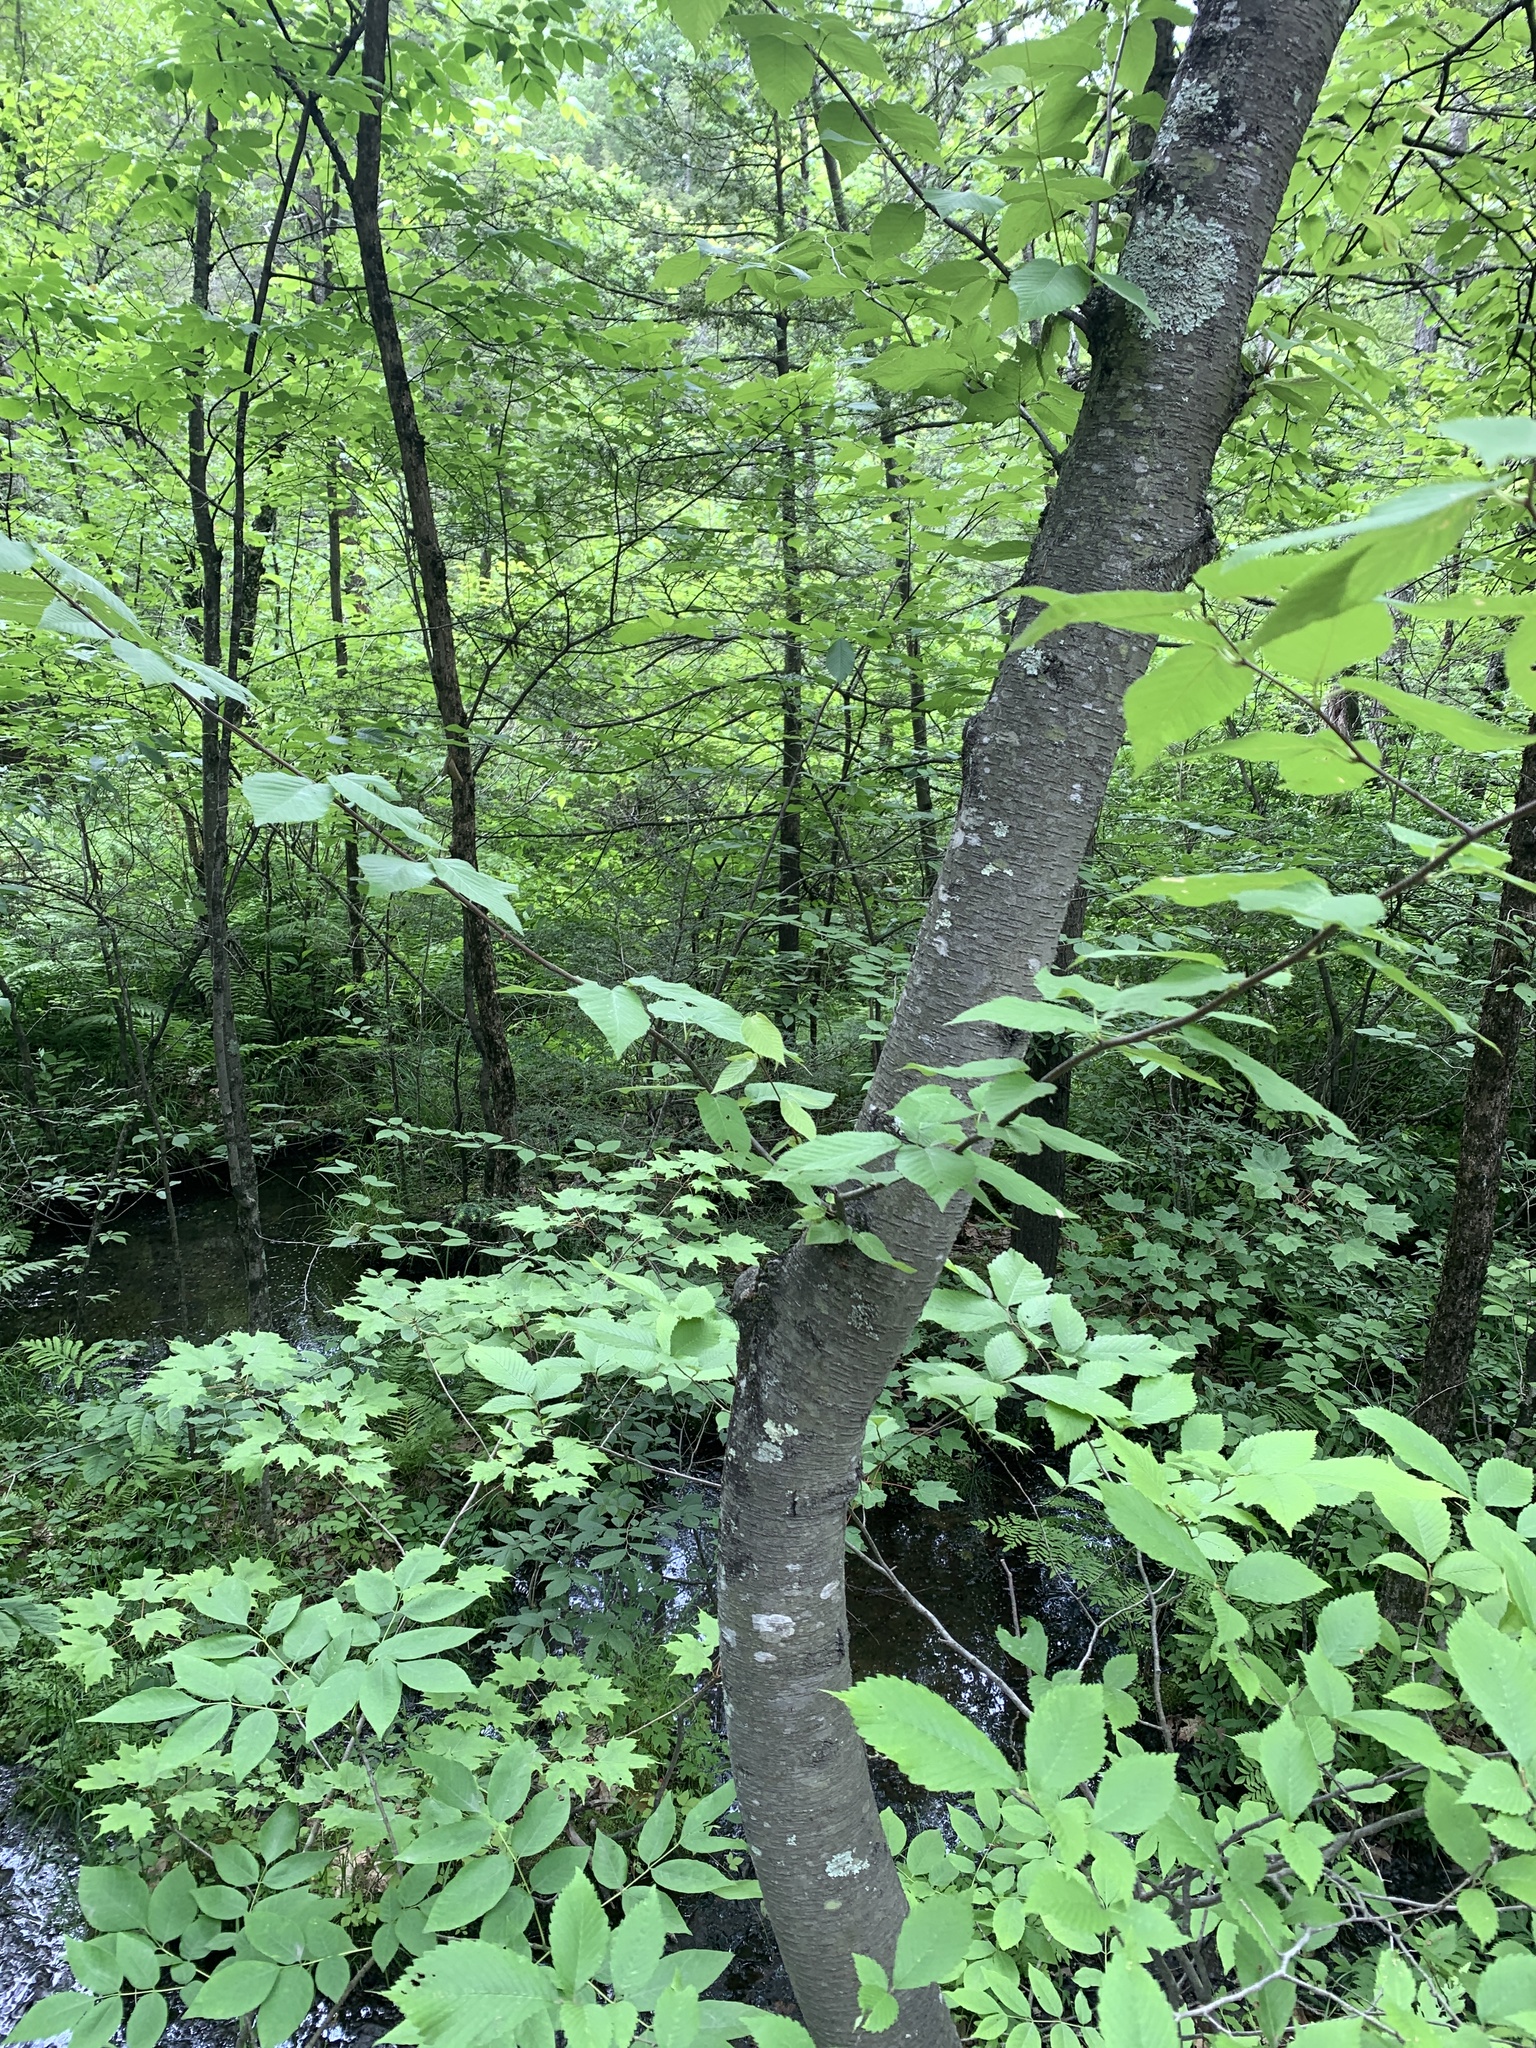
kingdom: Plantae
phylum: Tracheophyta
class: Magnoliopsida
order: Fagales
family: Betulaceae
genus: Betula
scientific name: Betula lenta
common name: Black birch
